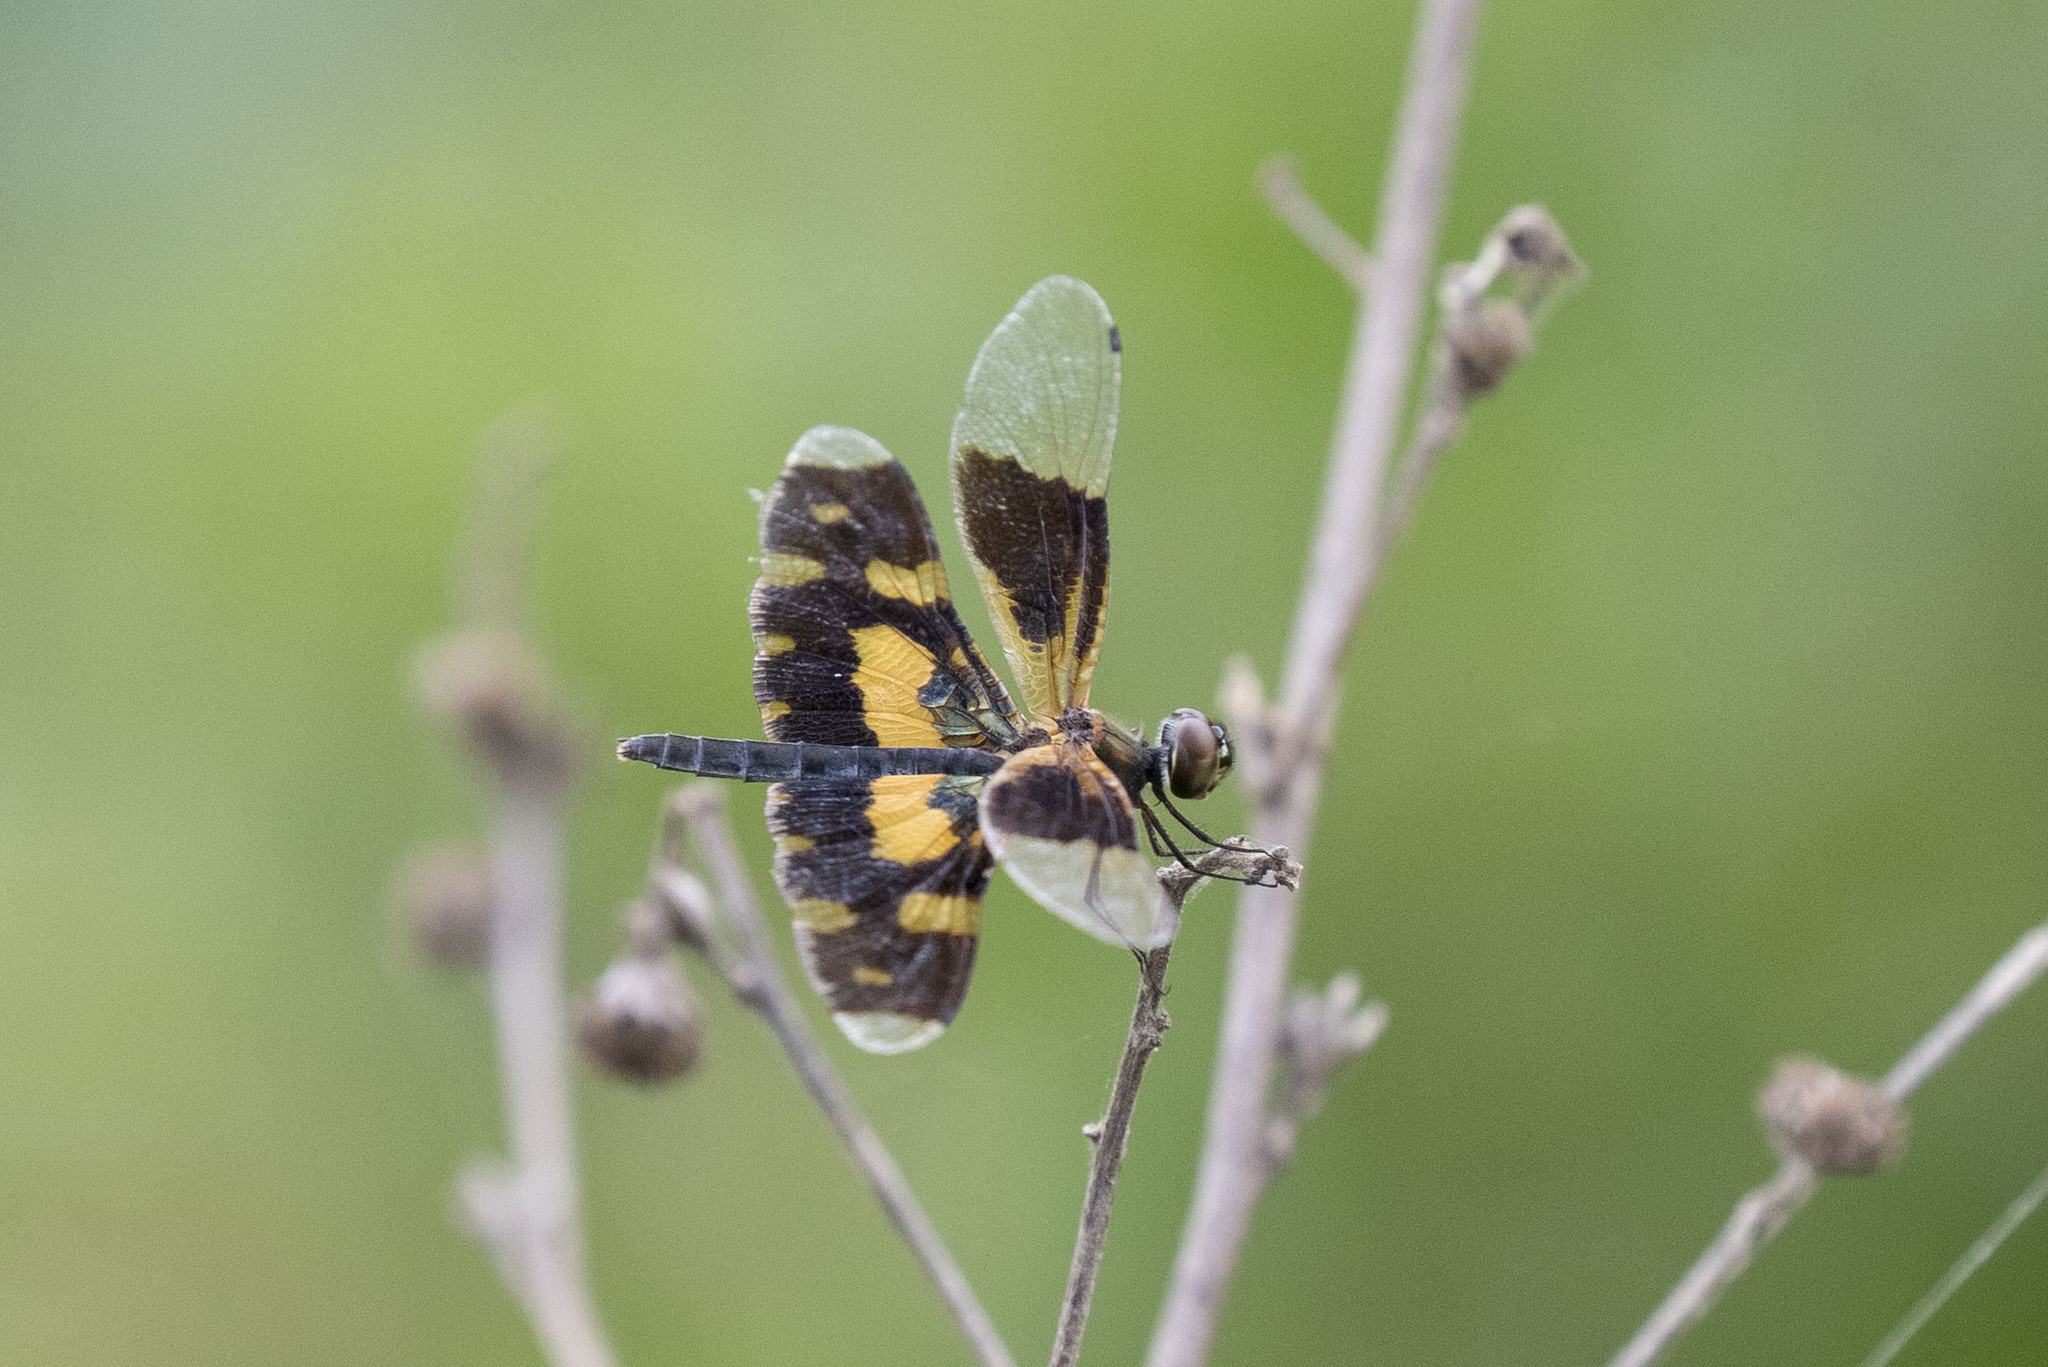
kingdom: Animalia
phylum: Arthropoda
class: Insecta
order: Odonata
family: Libellulidae
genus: Rhyothemis
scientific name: Rhyothemis variegata
